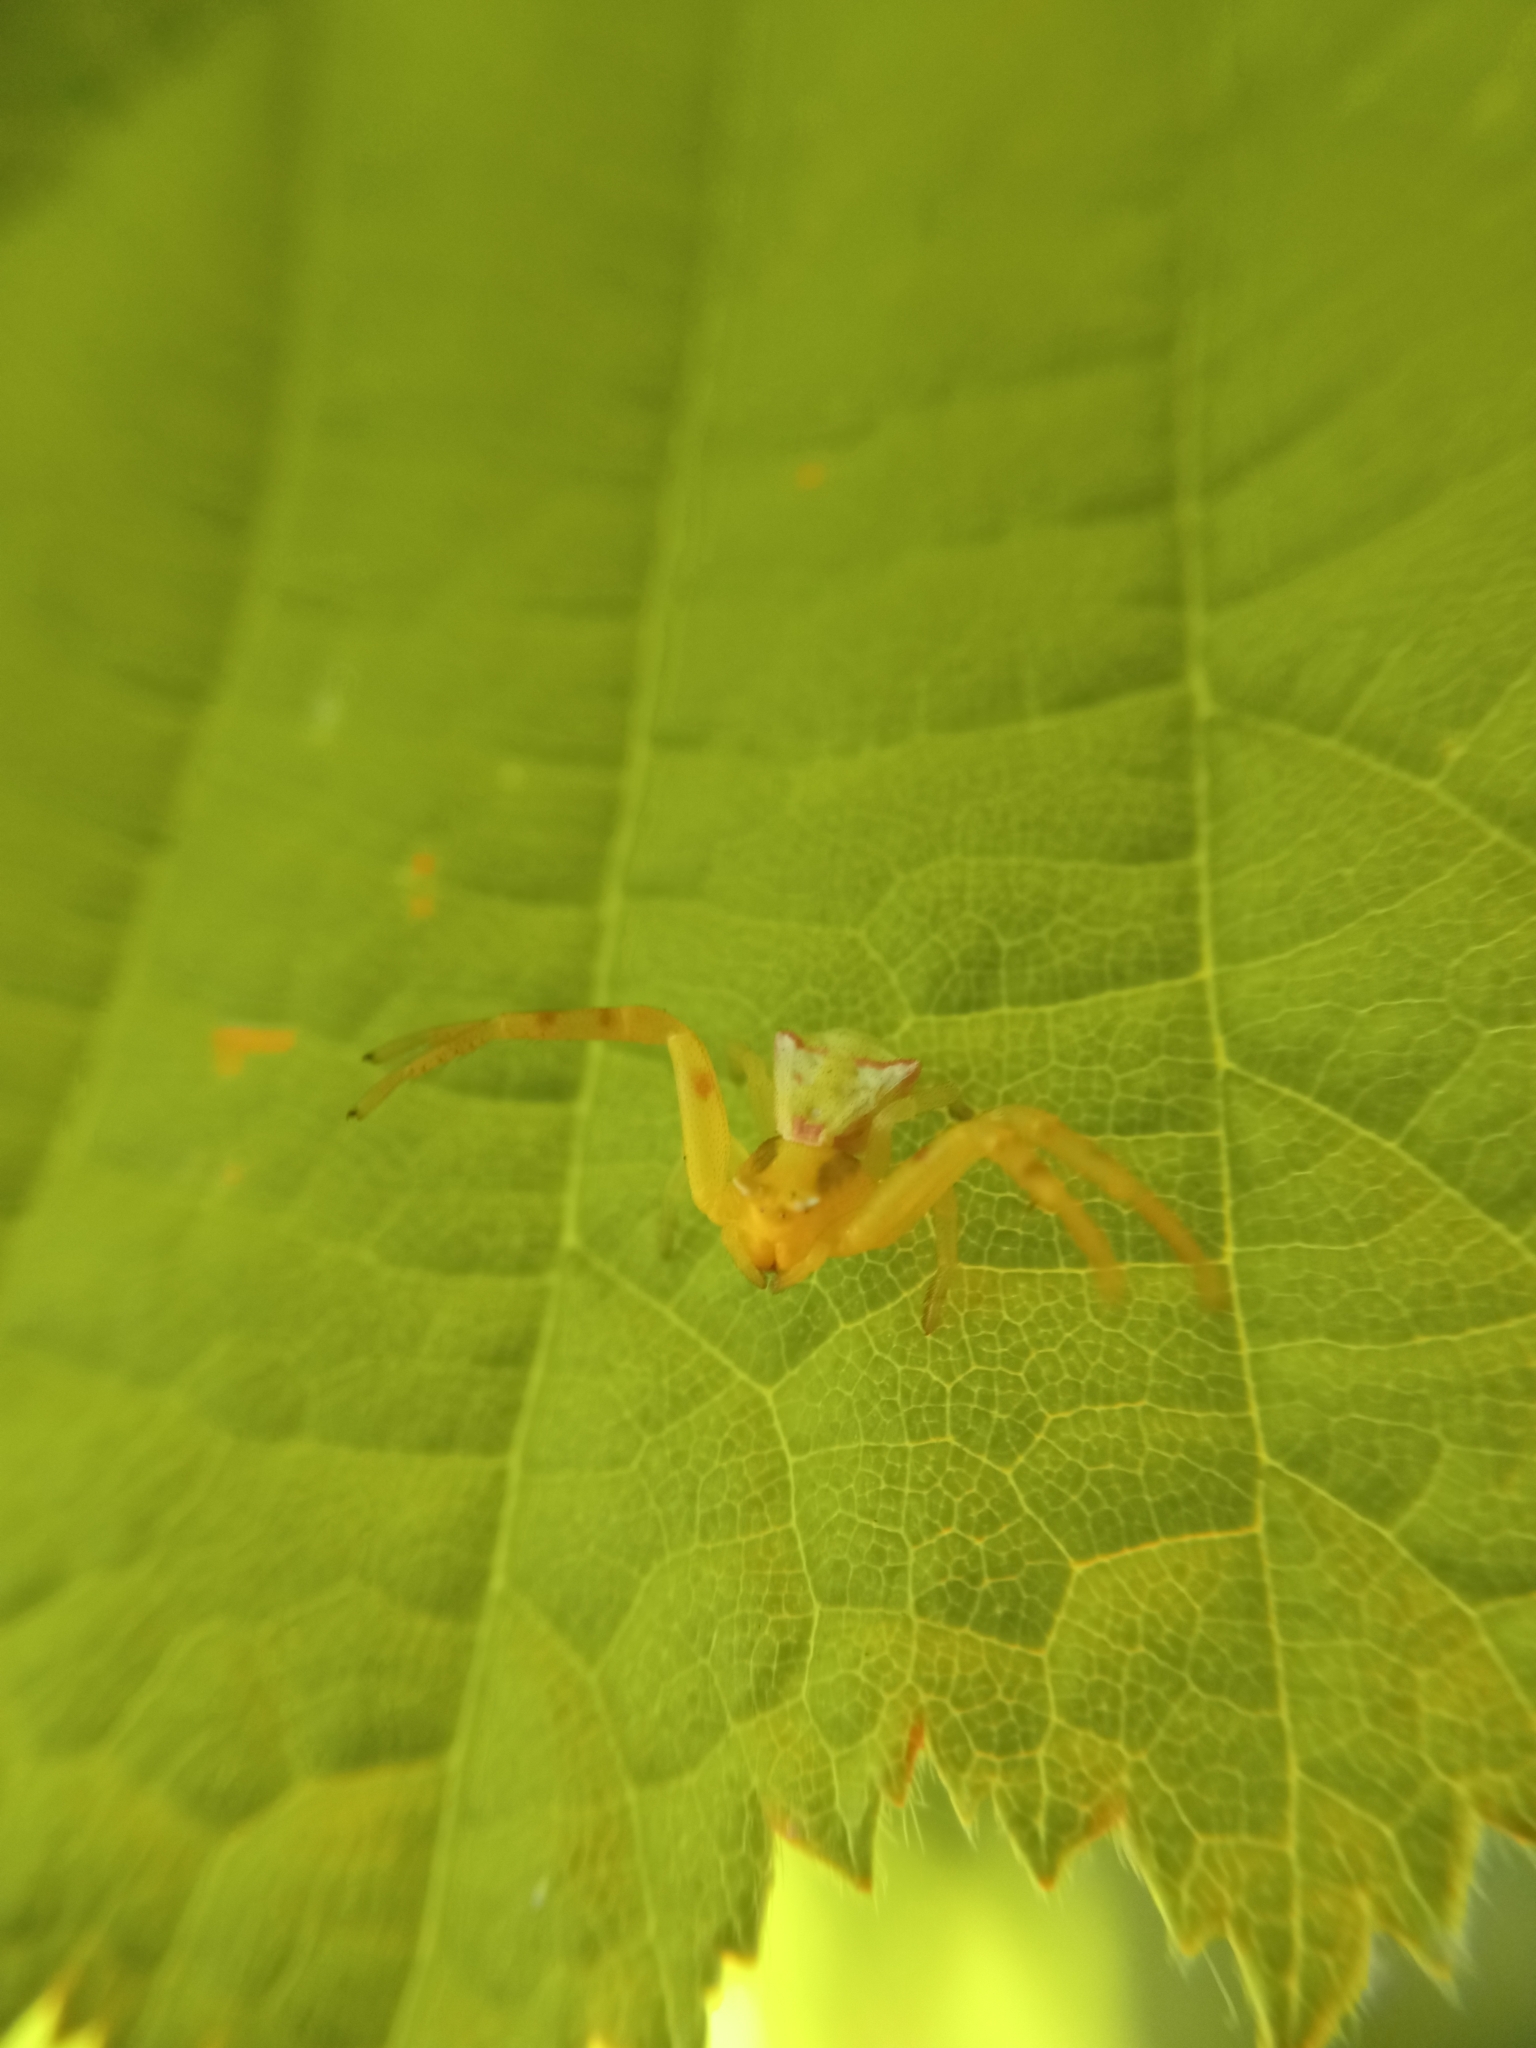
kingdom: Animalia
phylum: Arthropoda
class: Arachnida
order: Araneae
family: Thomisidae
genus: Thomisus
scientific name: Thomisus onustus
